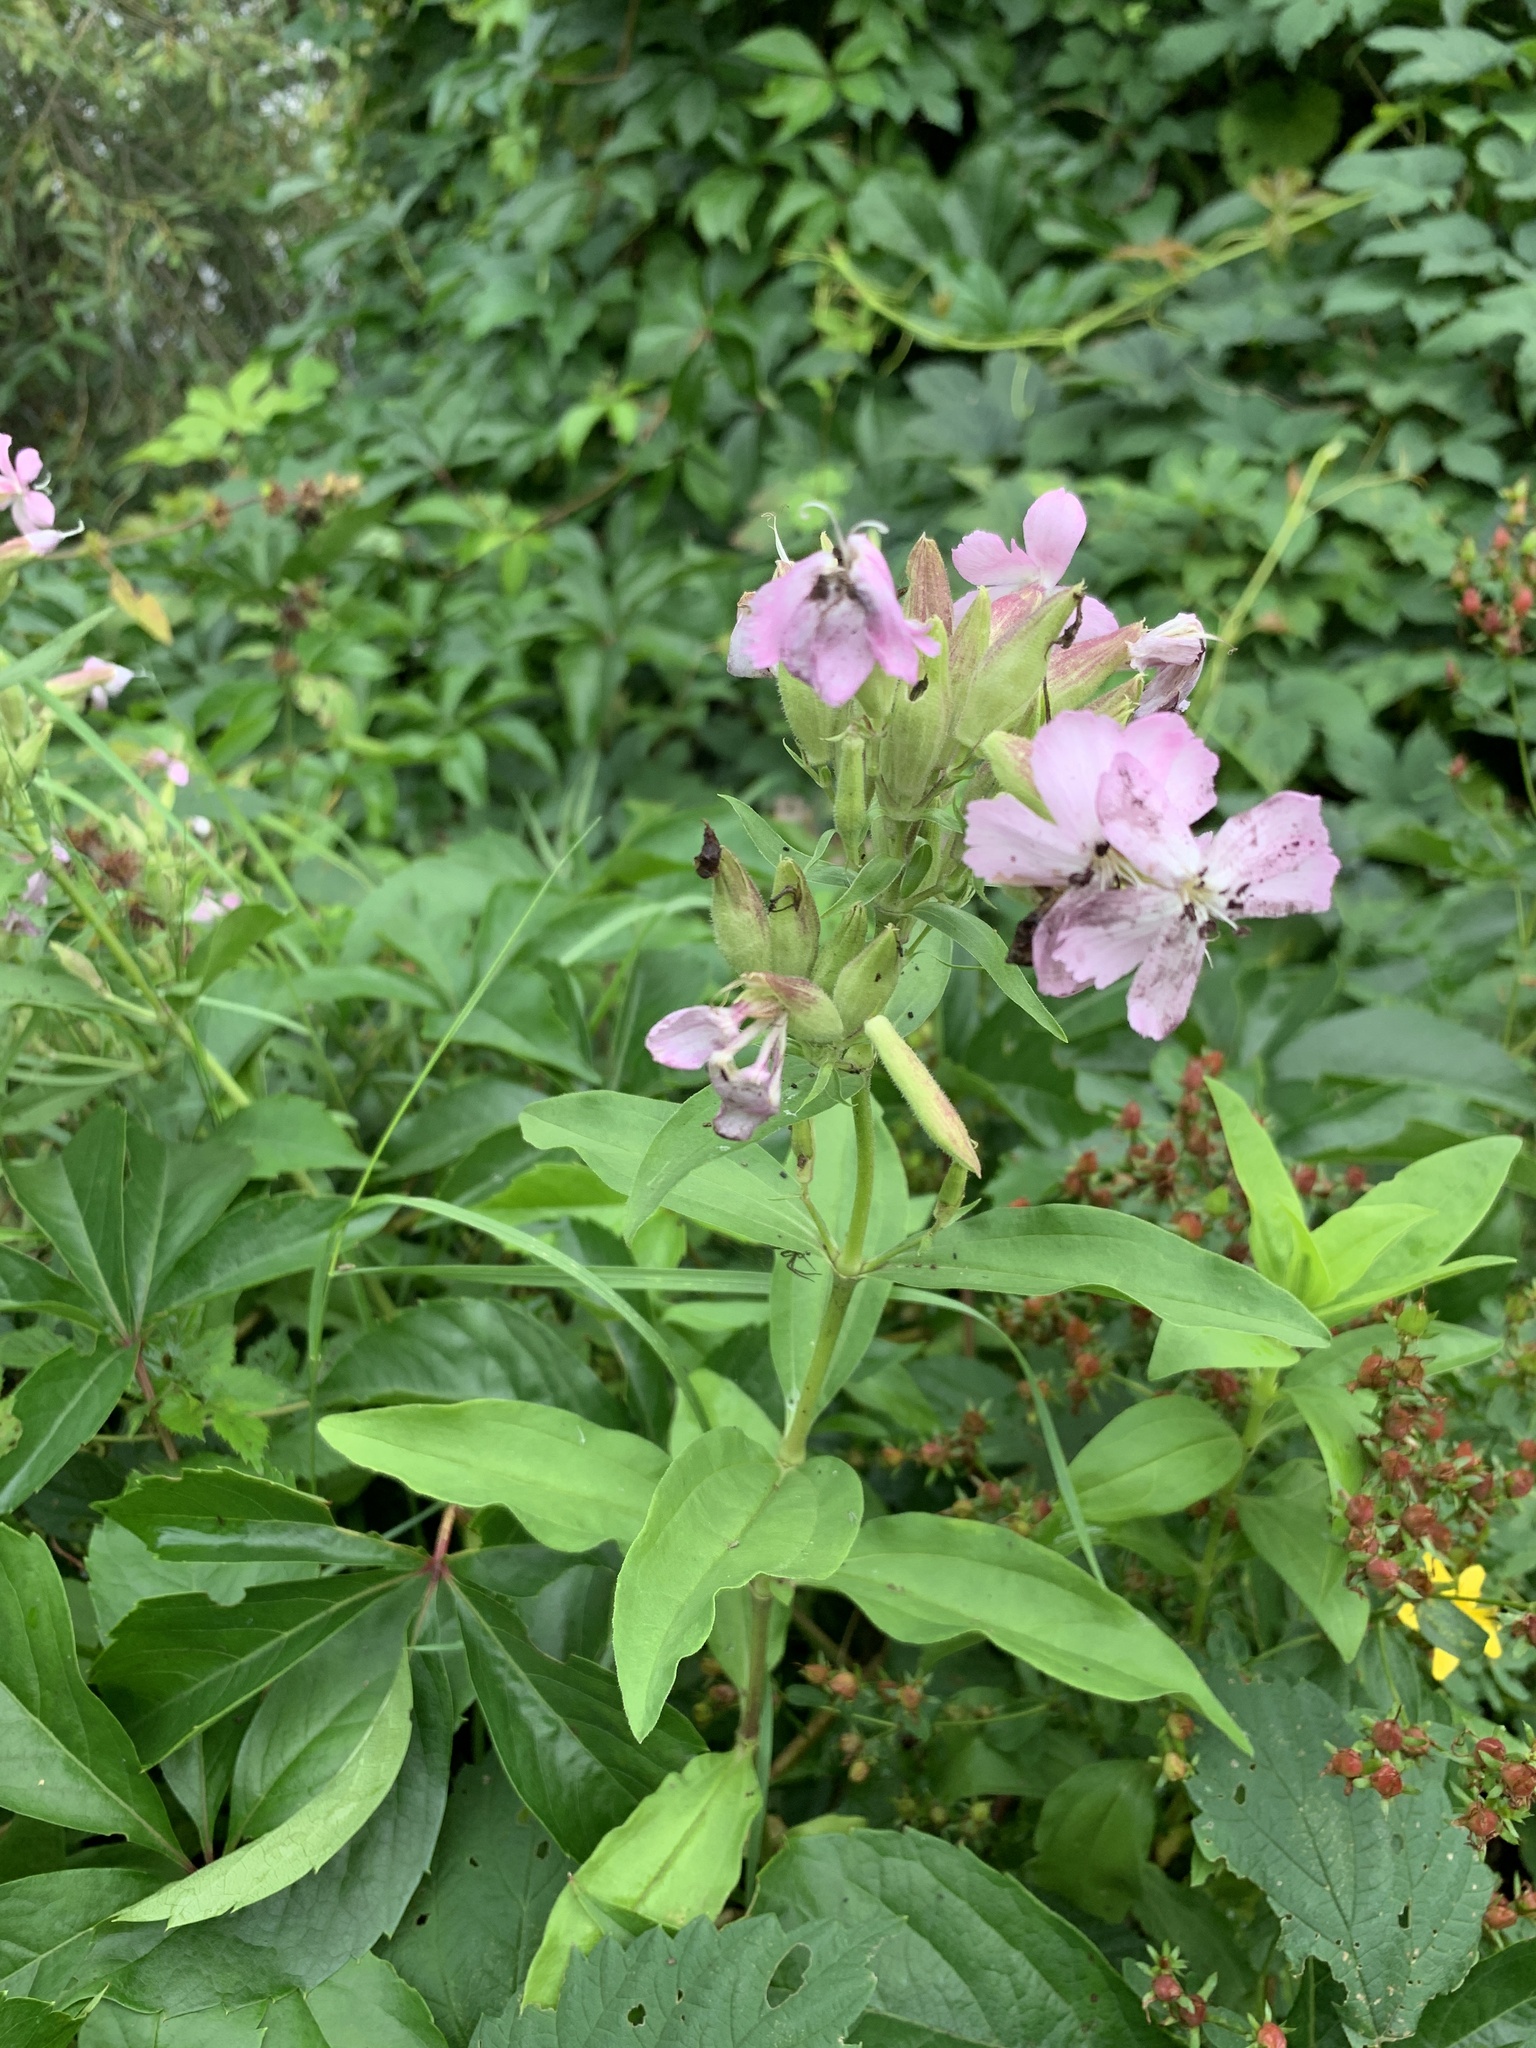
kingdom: Plantae
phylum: Tracheophyta
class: Magnoliopsida
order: Caryophyllales
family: Caryophyllaceae
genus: Saponaria
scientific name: Saponaria officinalis
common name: Soapwort
